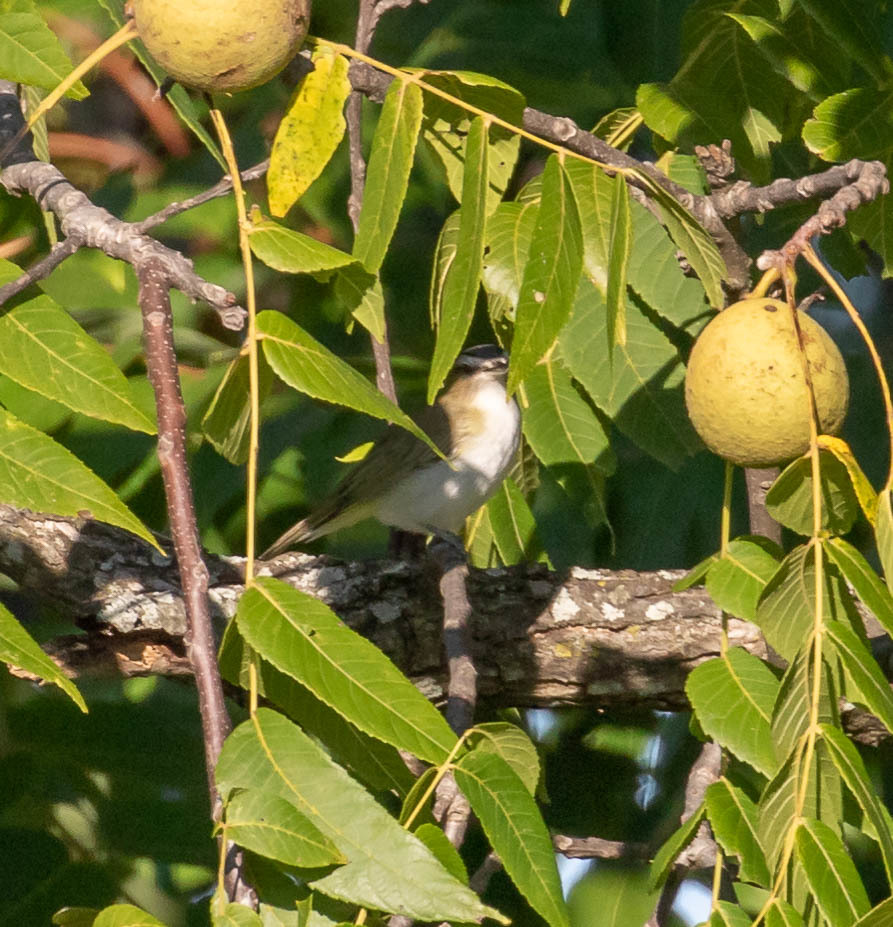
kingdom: Animalia
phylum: Chordata
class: Aves
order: Passeriformes
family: Vireonidae
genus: Vireo
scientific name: Vireo olivaceus
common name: Red-eyed vireo
